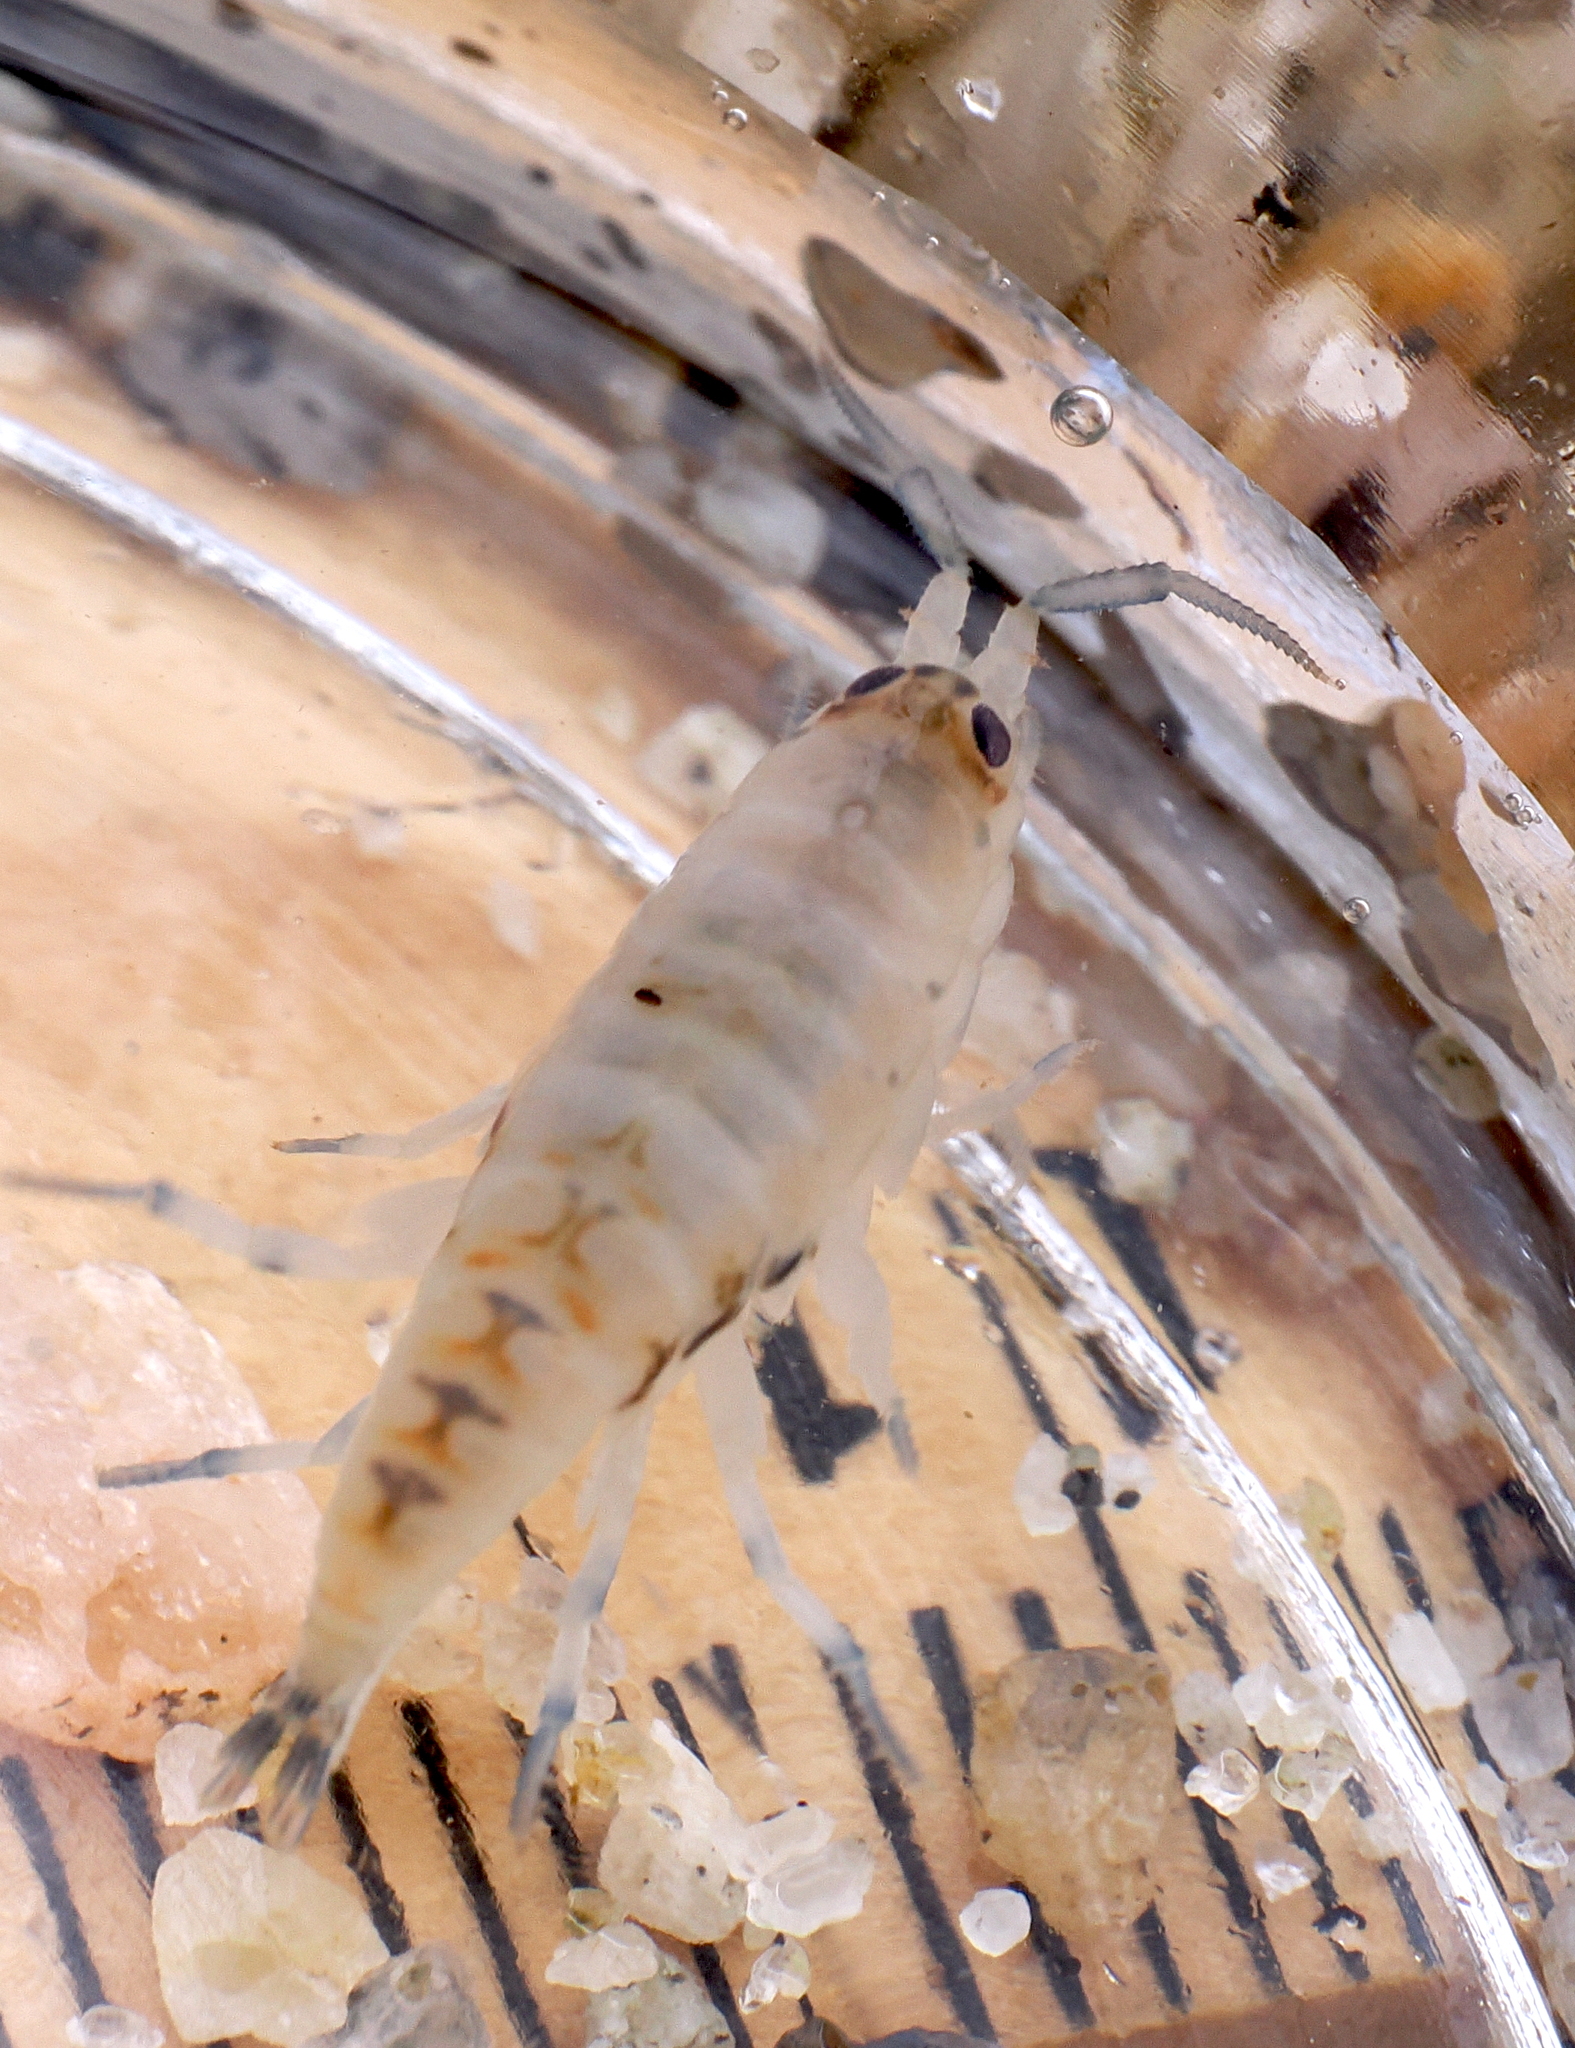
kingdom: Animalia
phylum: Arthropoda
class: Malacostraca
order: Amphipoda
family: Talitridae
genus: Megalorchestia
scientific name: Megalorchestia pugettensis
